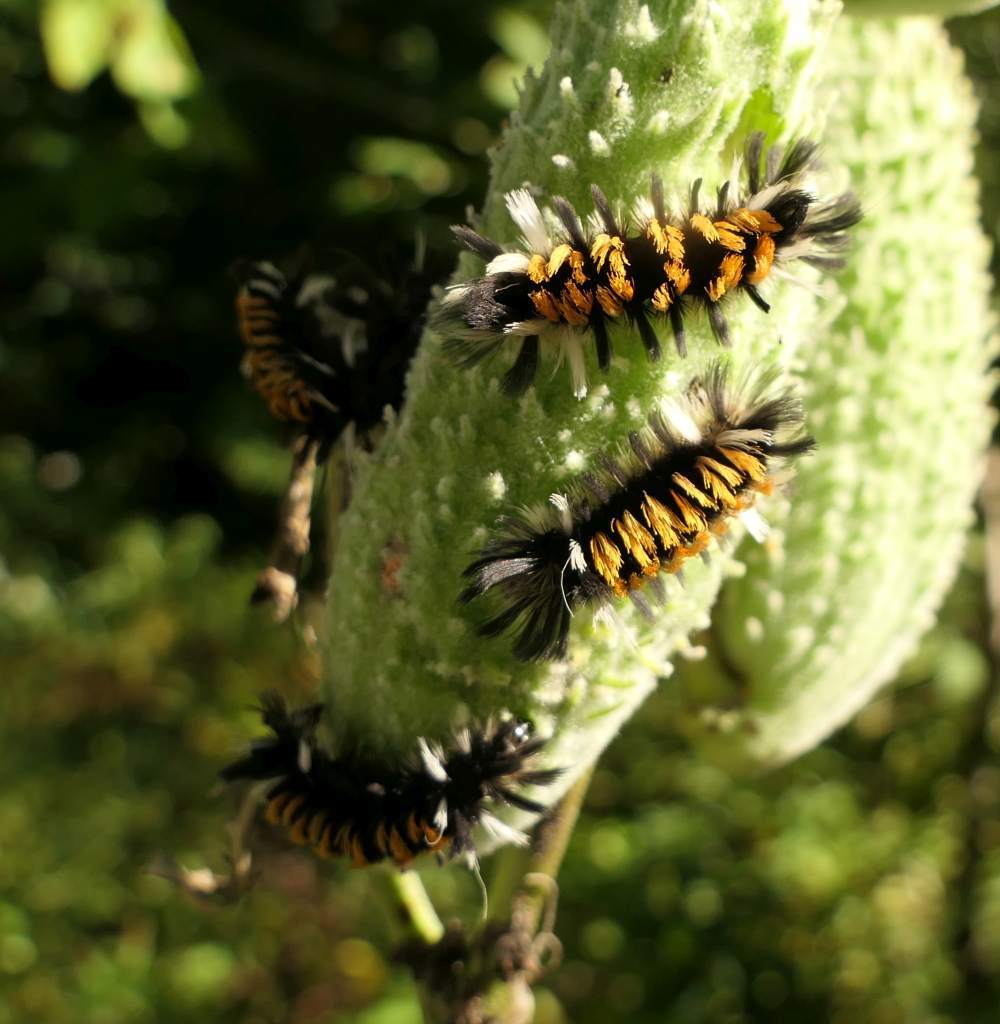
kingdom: Animalia
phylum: Arthropoda
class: Insecta
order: Lepidoptera
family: Erebidae
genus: Euchaetes
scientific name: Euchaetes egle
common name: Milkweed tussock moth
